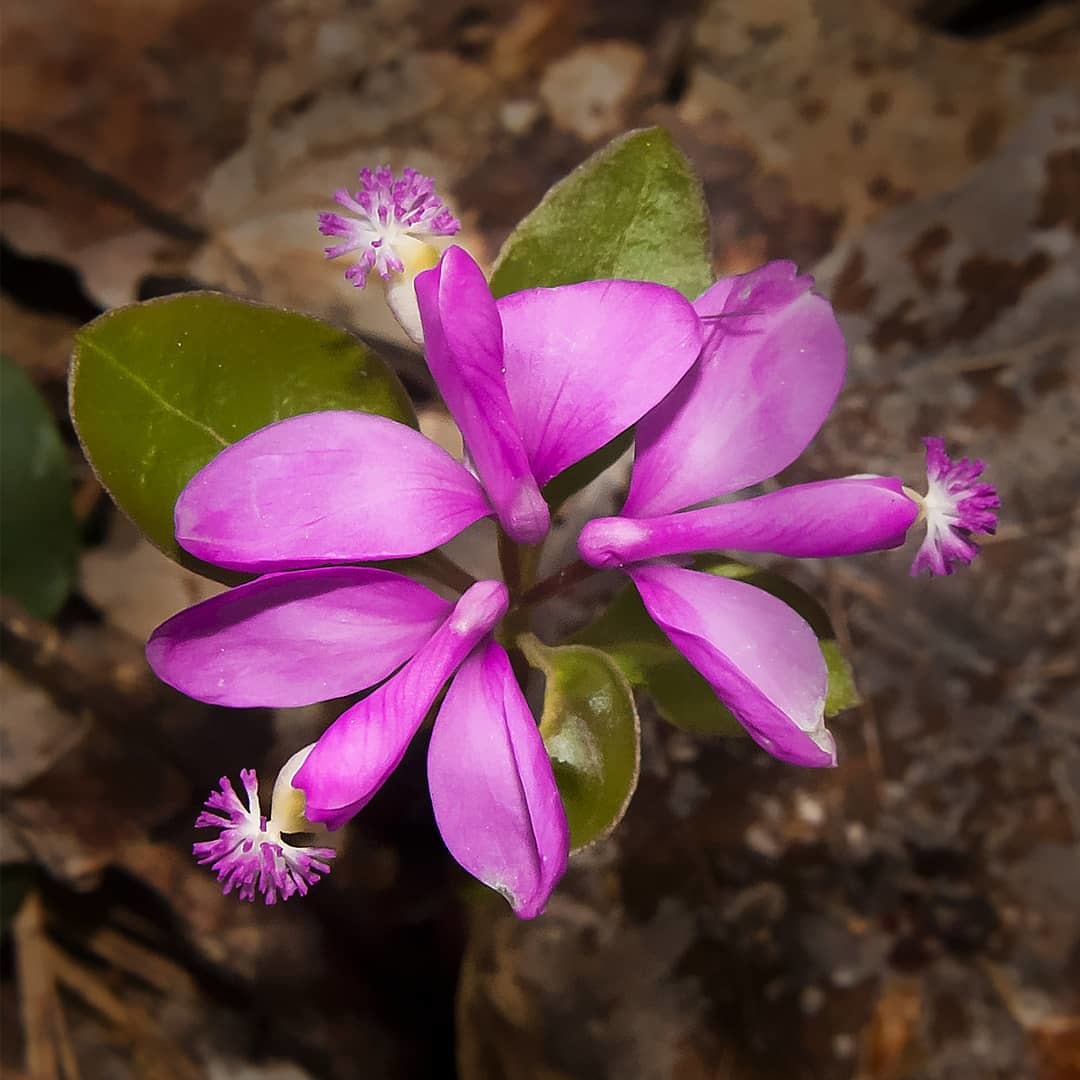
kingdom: Plantae
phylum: Tracheophyta
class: Magnoliopsida
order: Fabales
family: Polygalaceae
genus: Polygaloides
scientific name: Polygaloides paucifolia
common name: Bird-on-the-wing
